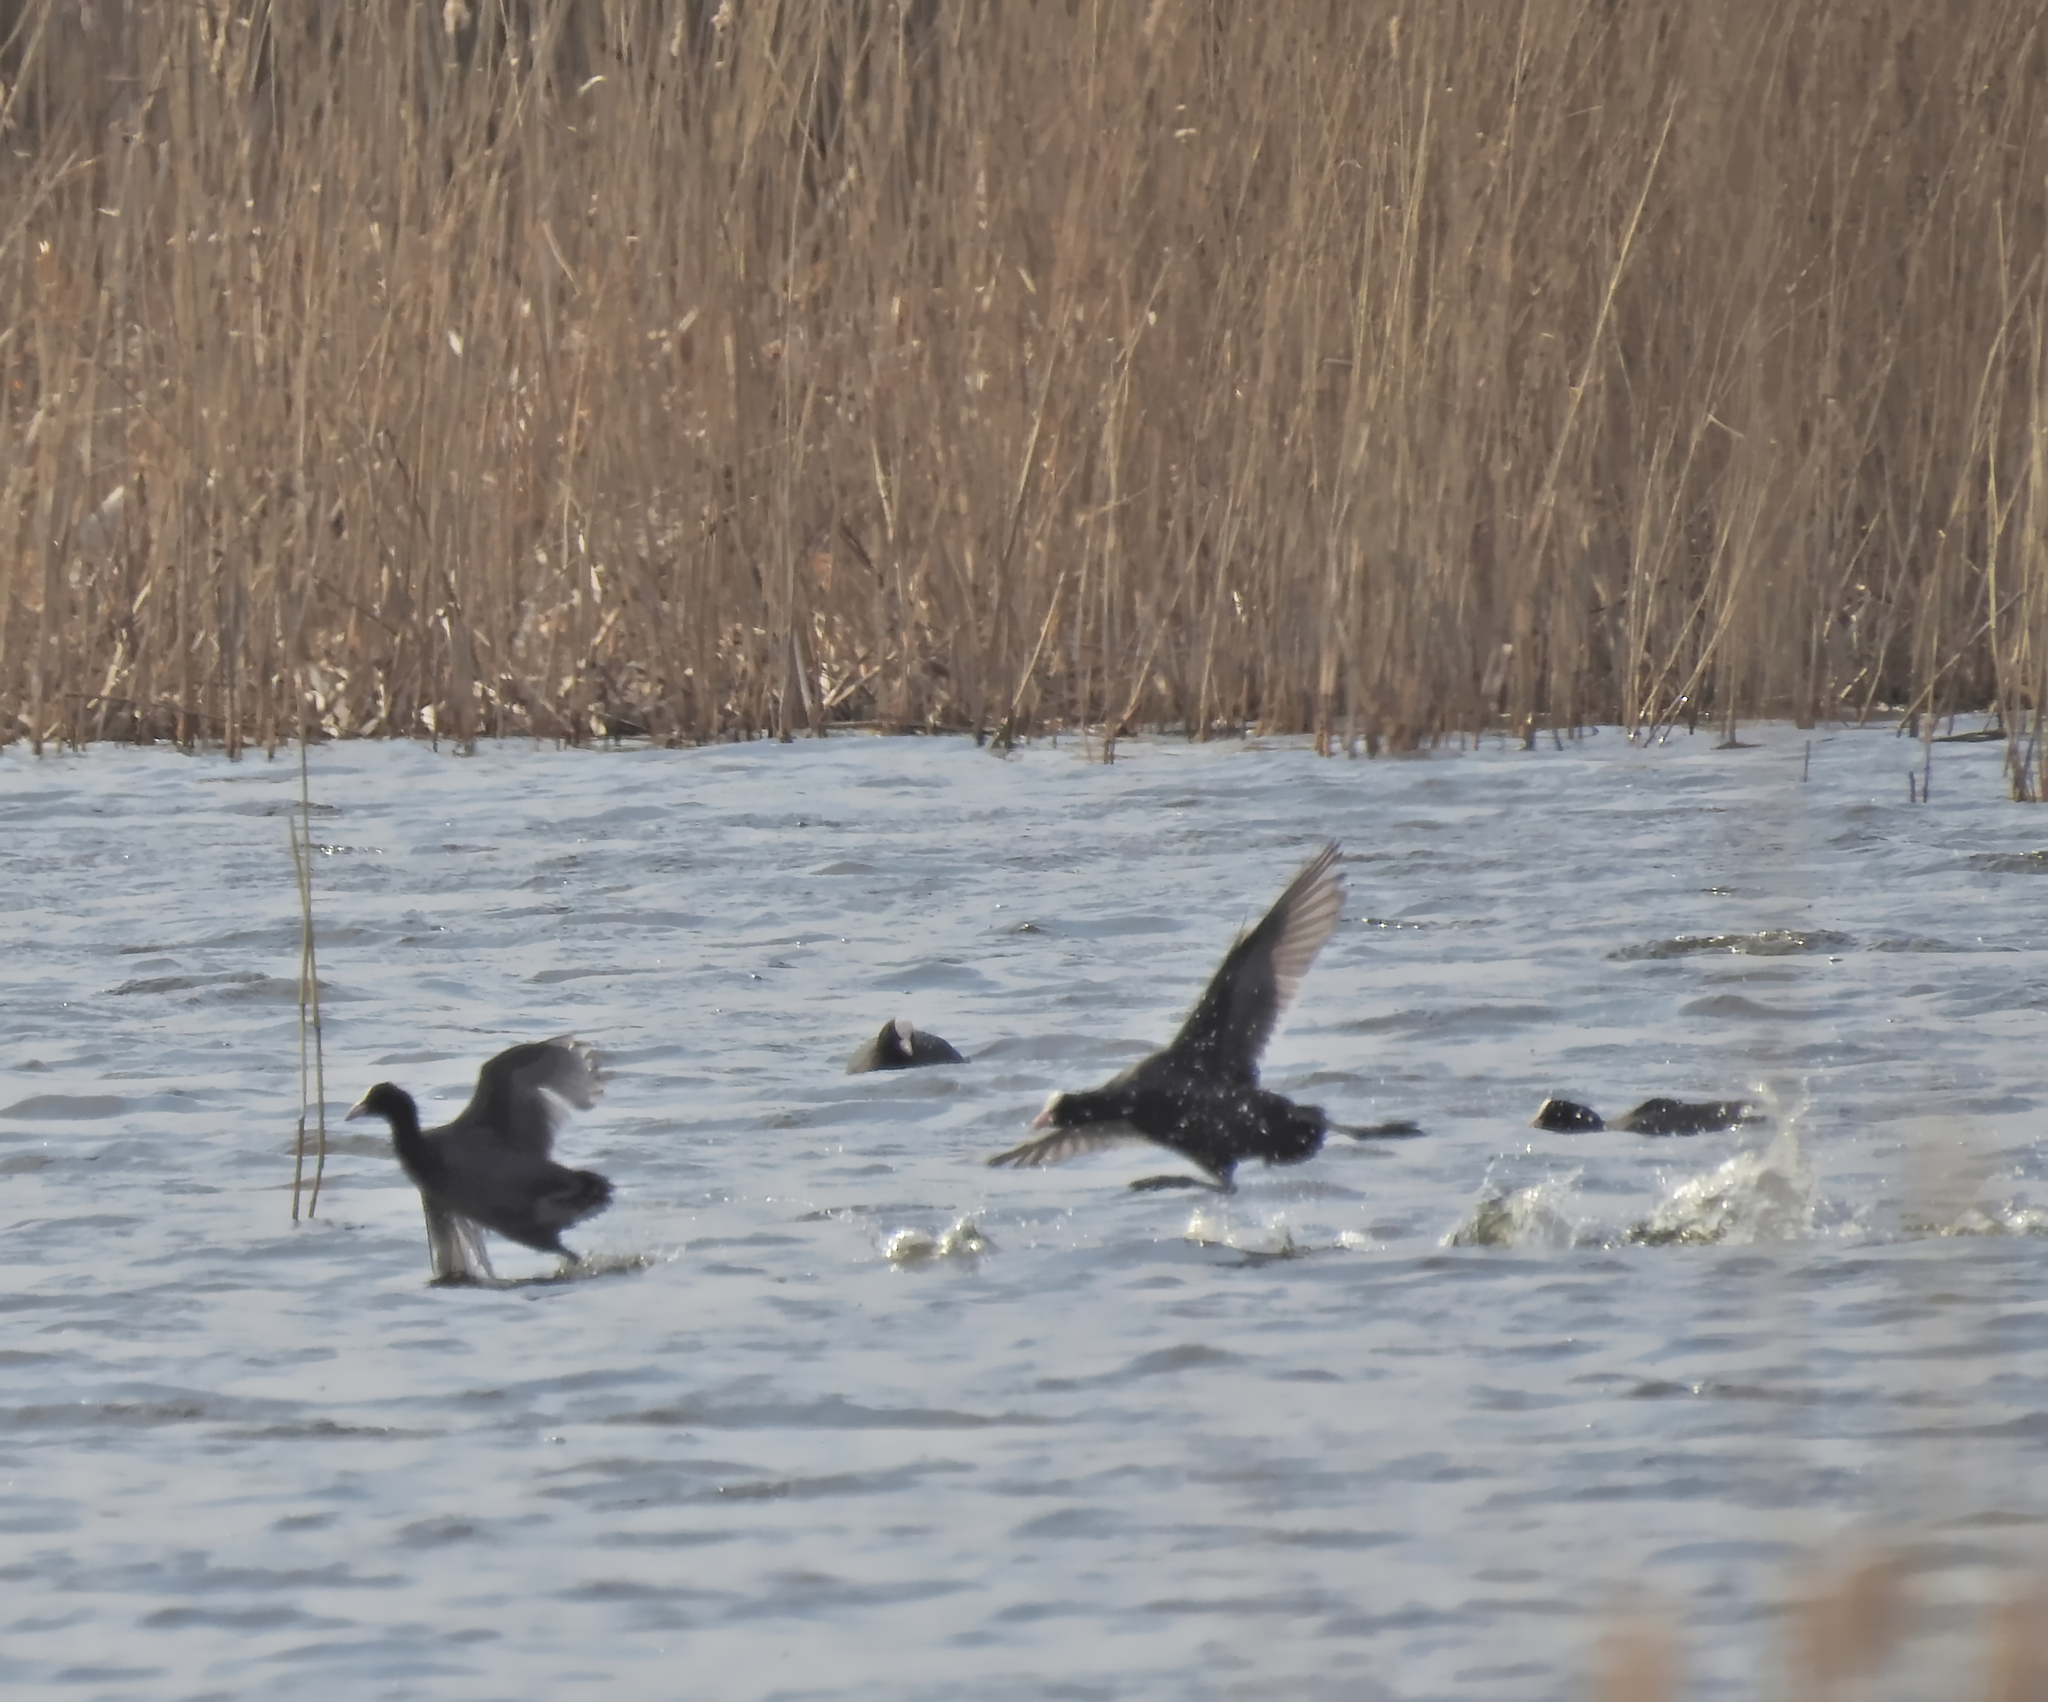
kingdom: Animalia
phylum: Chordata
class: Aves
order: Gruiformes
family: Rallidae
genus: Fulica
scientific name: Fulica atra
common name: Eurasian coot
